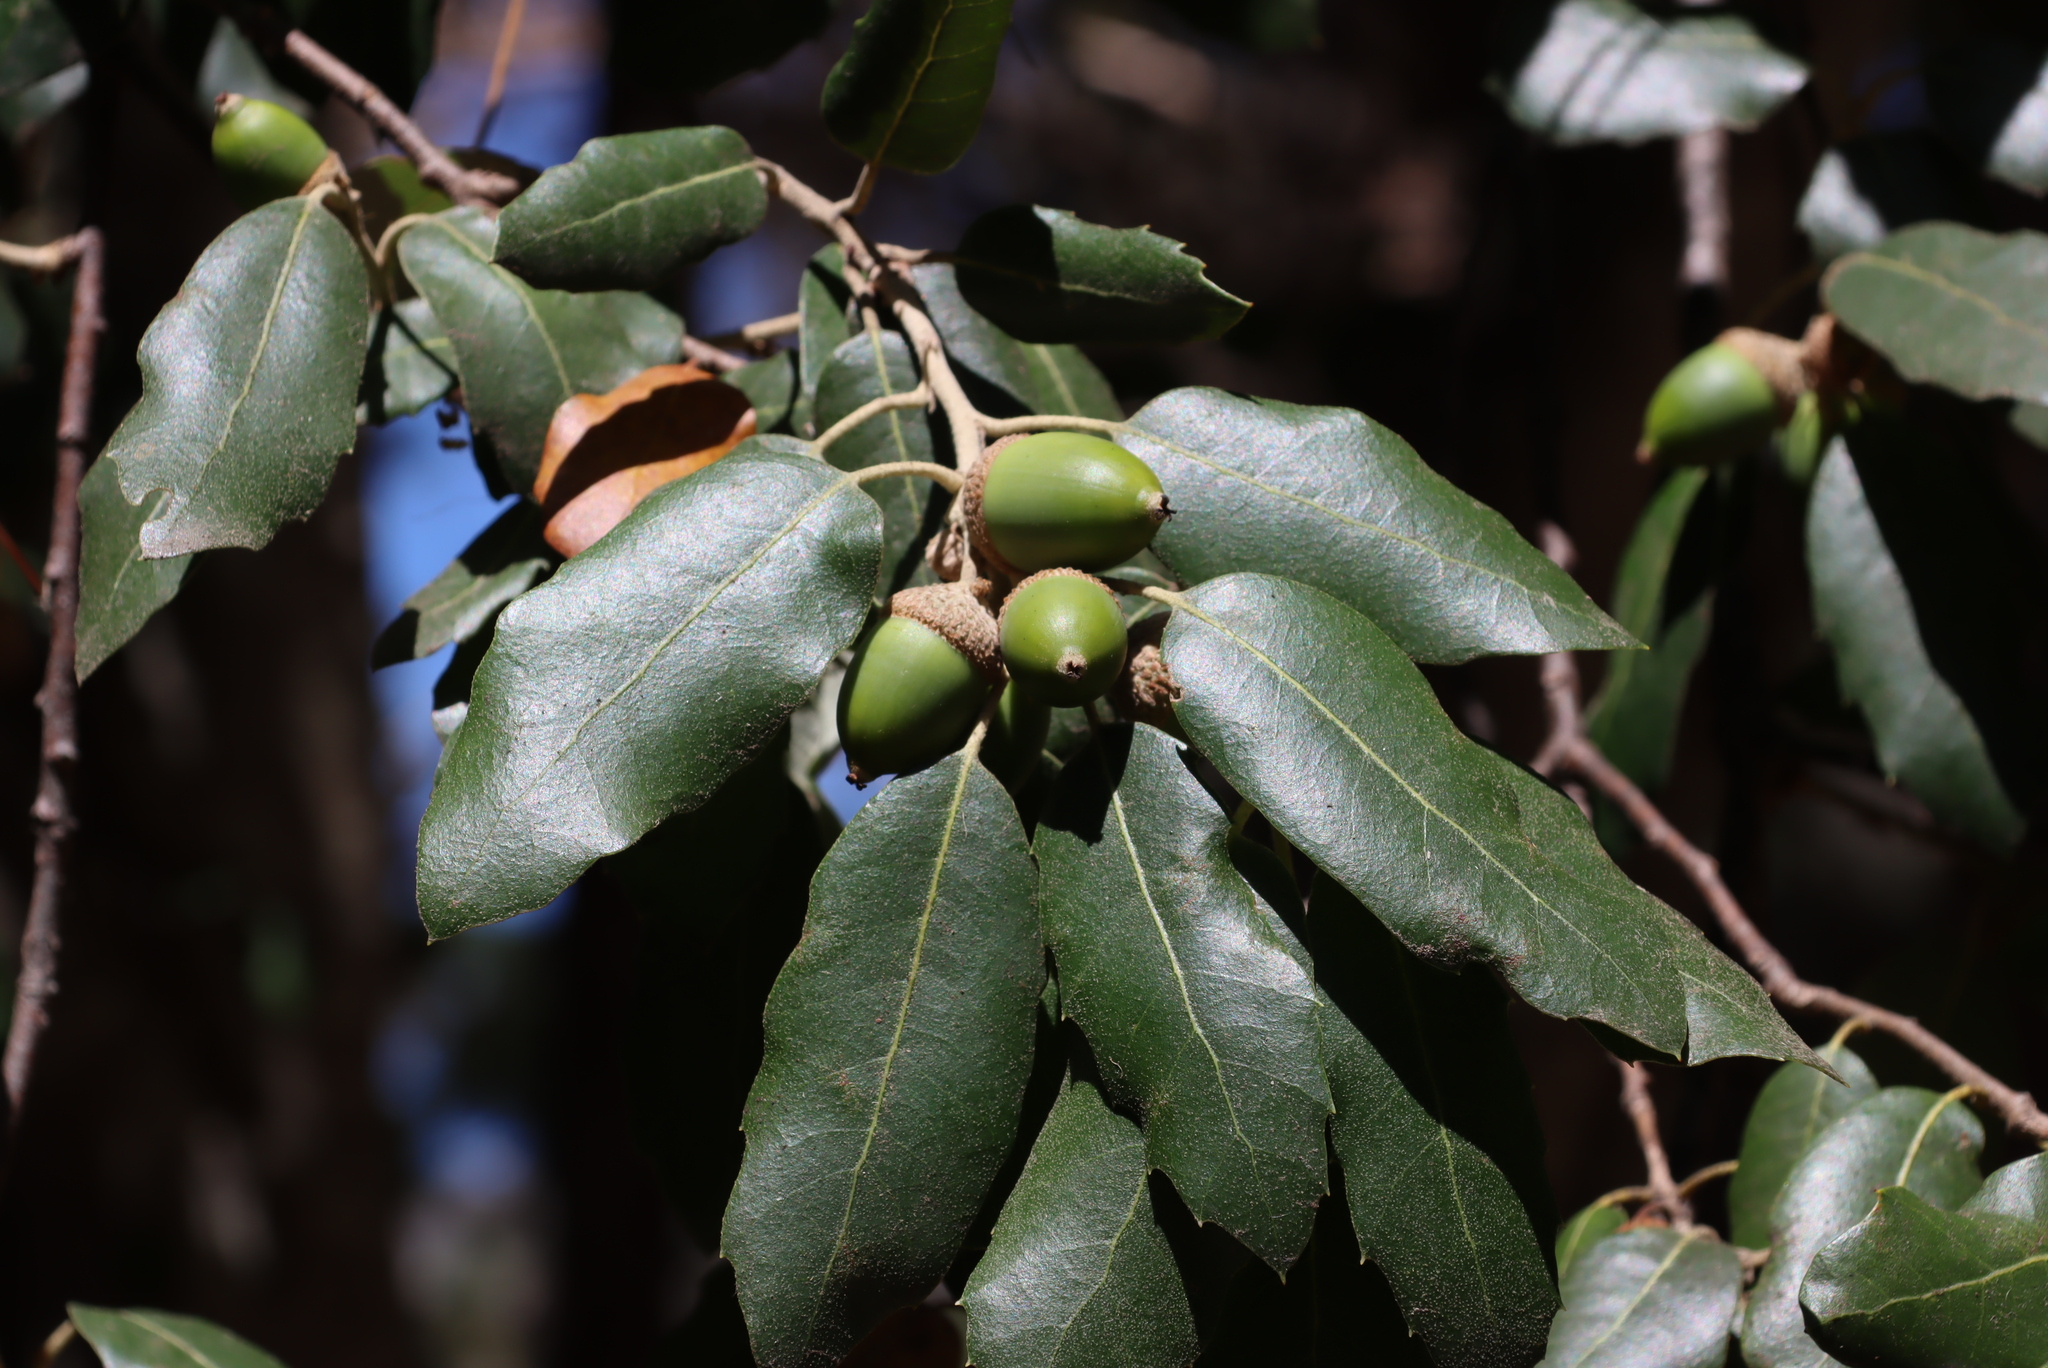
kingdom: Plantae
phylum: Tracheophyta
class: Magnoliopsida
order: Fagales
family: Fagaceae
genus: Quercus
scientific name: Quercus ilex
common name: Evergreen oak
